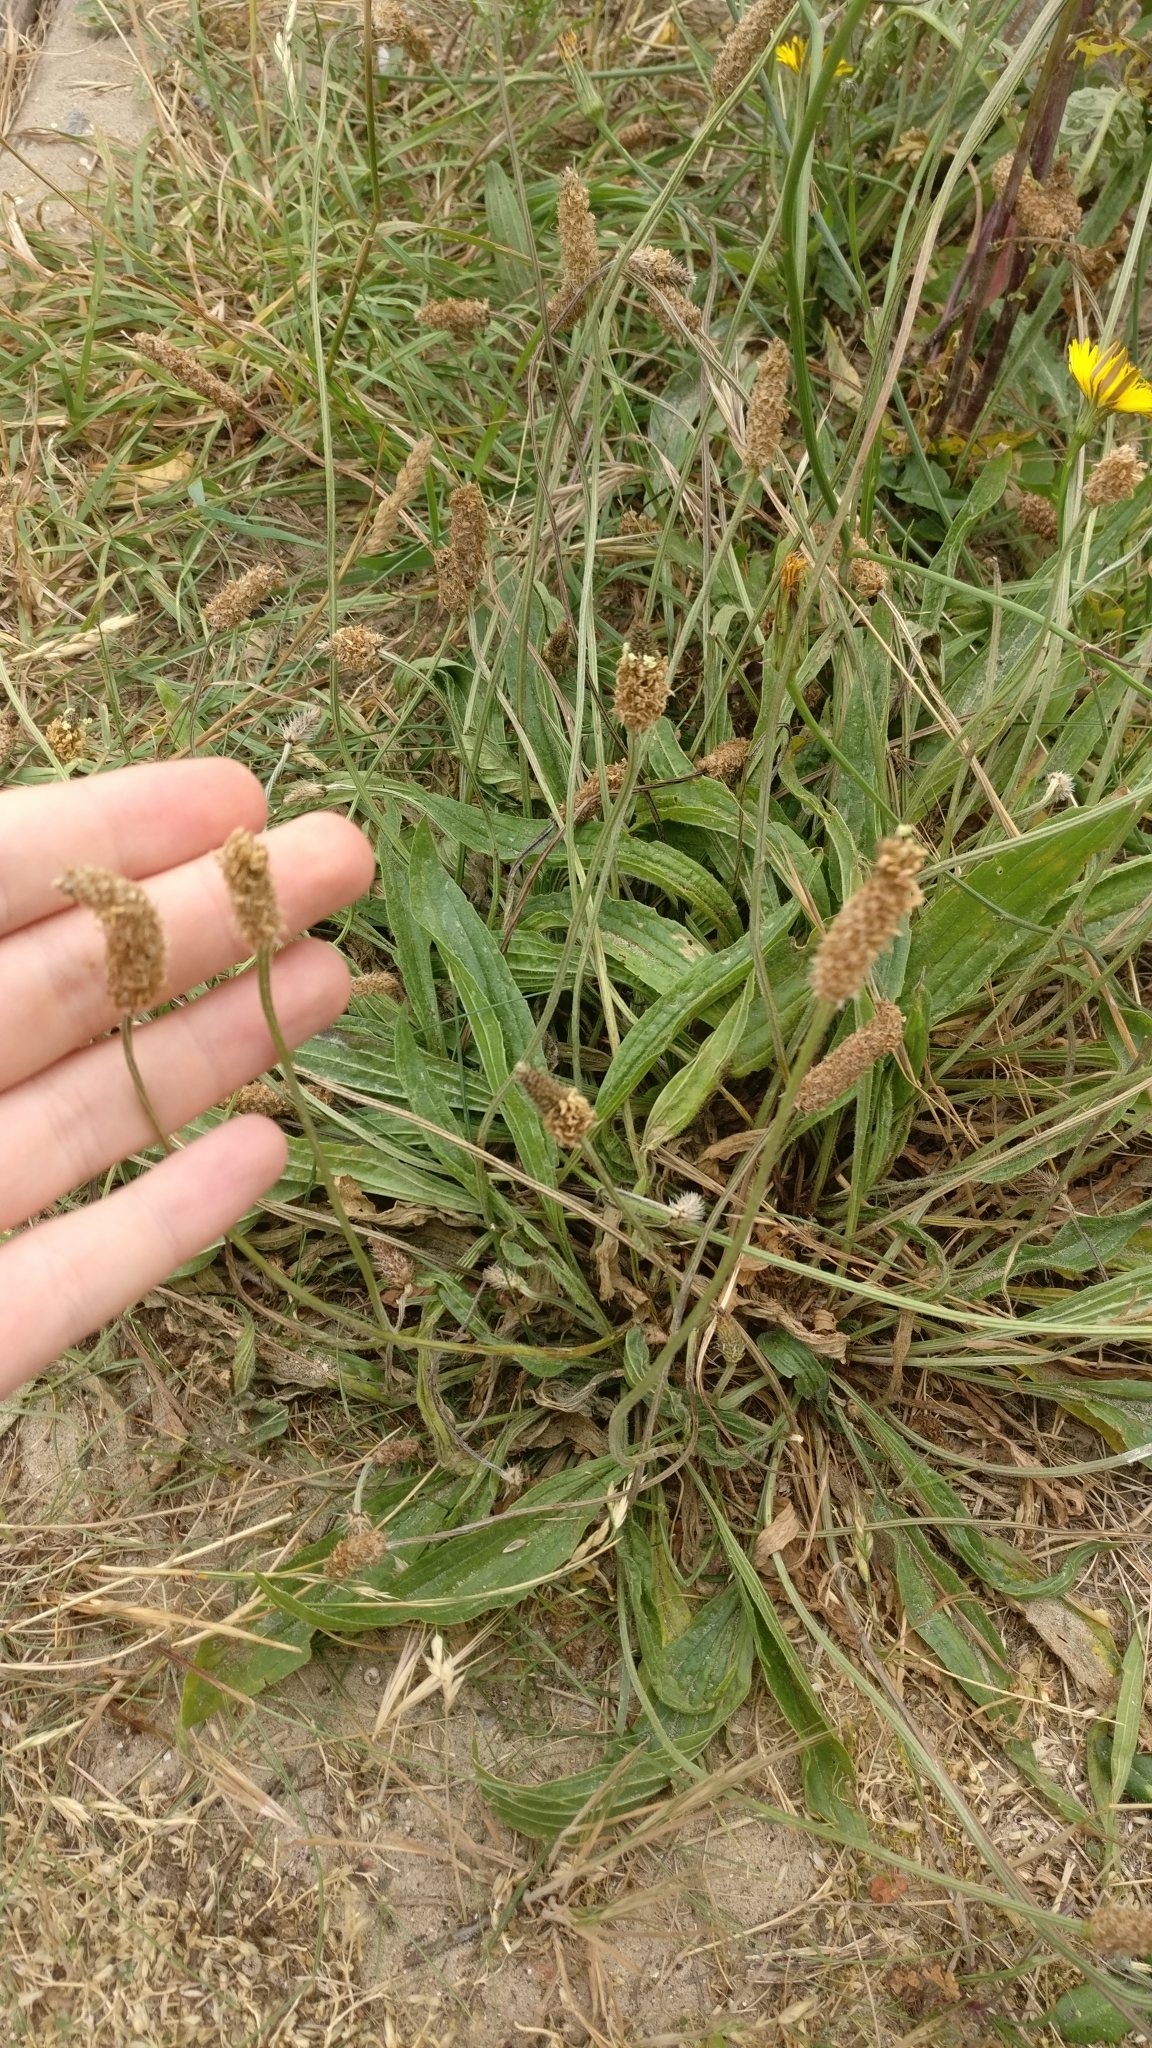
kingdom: Plantae
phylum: Tracheophyta
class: Magnoliopsida
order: Lamiales
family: Plantaginaceae
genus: Plantago
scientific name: Plantago lanceolata
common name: Ribwort plantain
